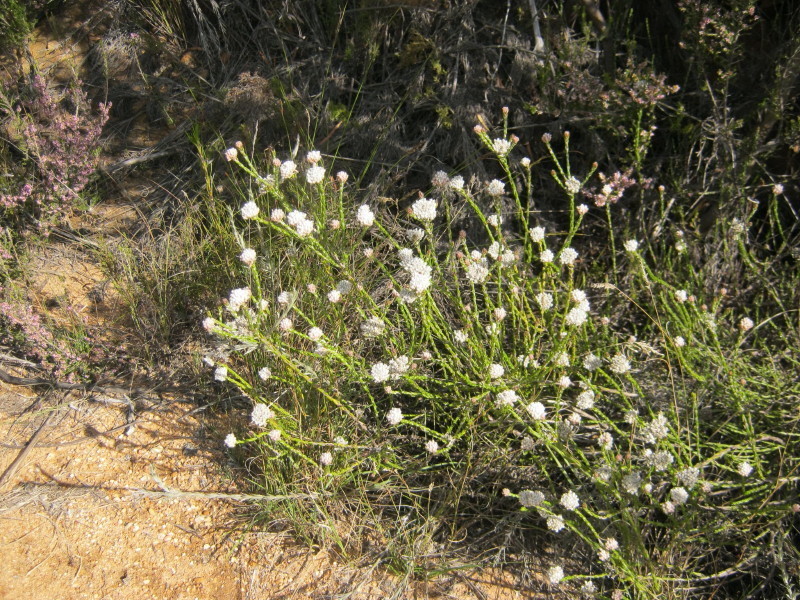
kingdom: Plantae
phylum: Tracheophyta
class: Magnoliopsida
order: Asterales
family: Asteraceae
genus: Metalasia
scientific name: Metalasia pulcherrima
